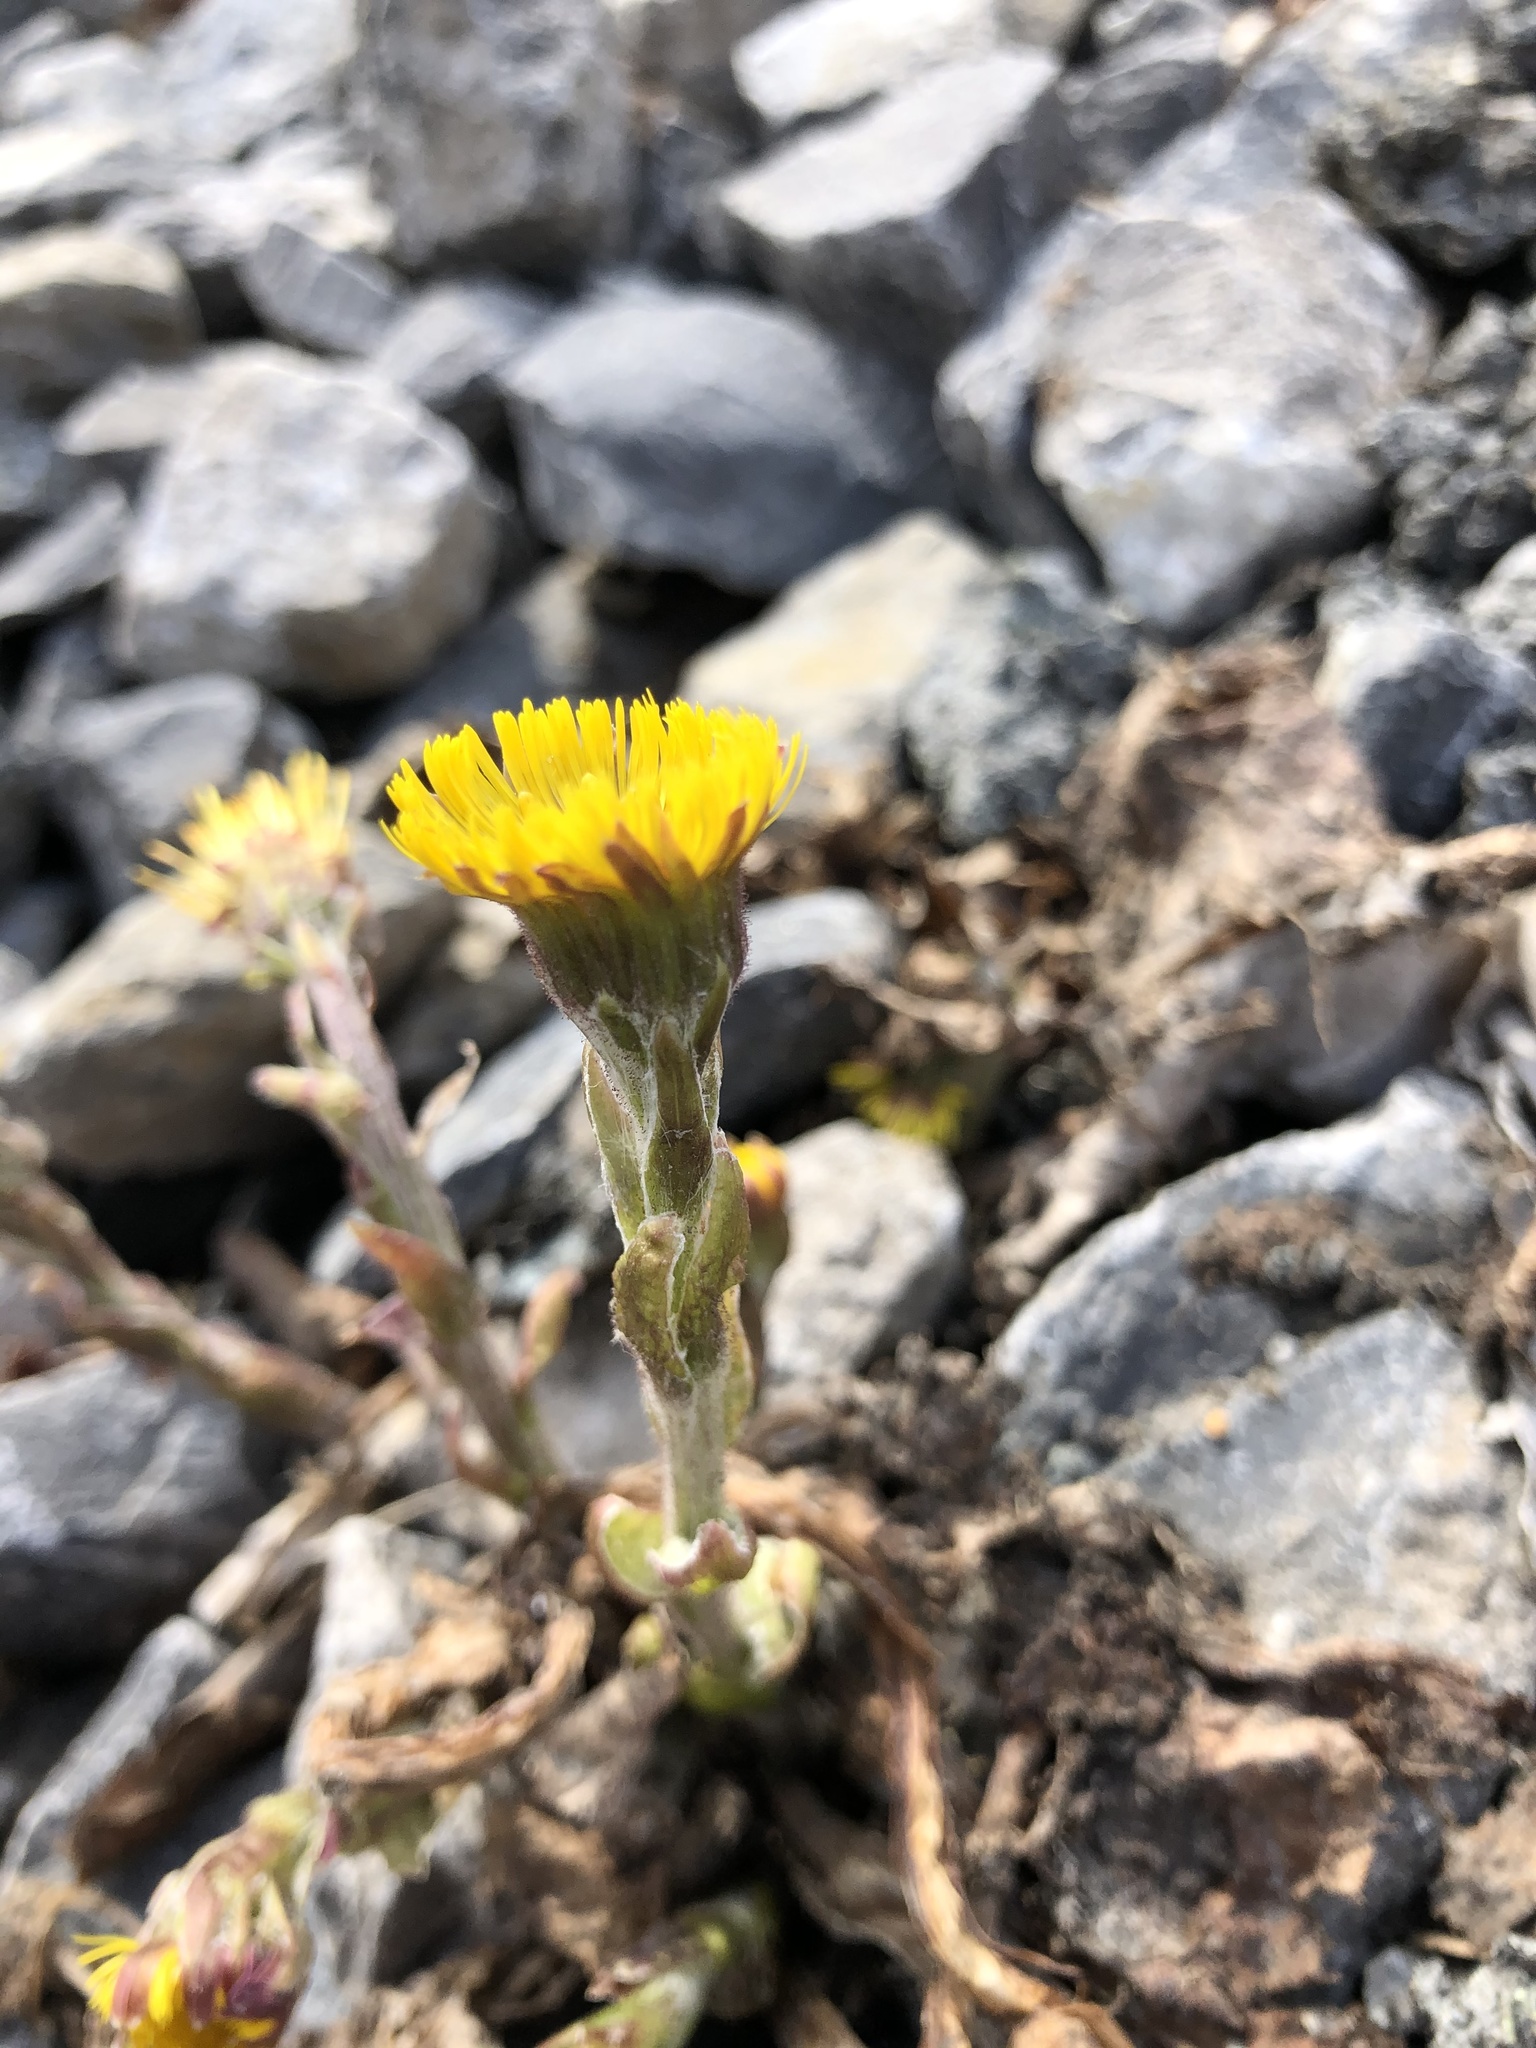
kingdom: Plantae
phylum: Tracheophyta
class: Magnoliopsida
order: Asterales
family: Asteraceae
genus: Tussilago
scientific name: Tussilago farfara
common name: Coltsfoot
